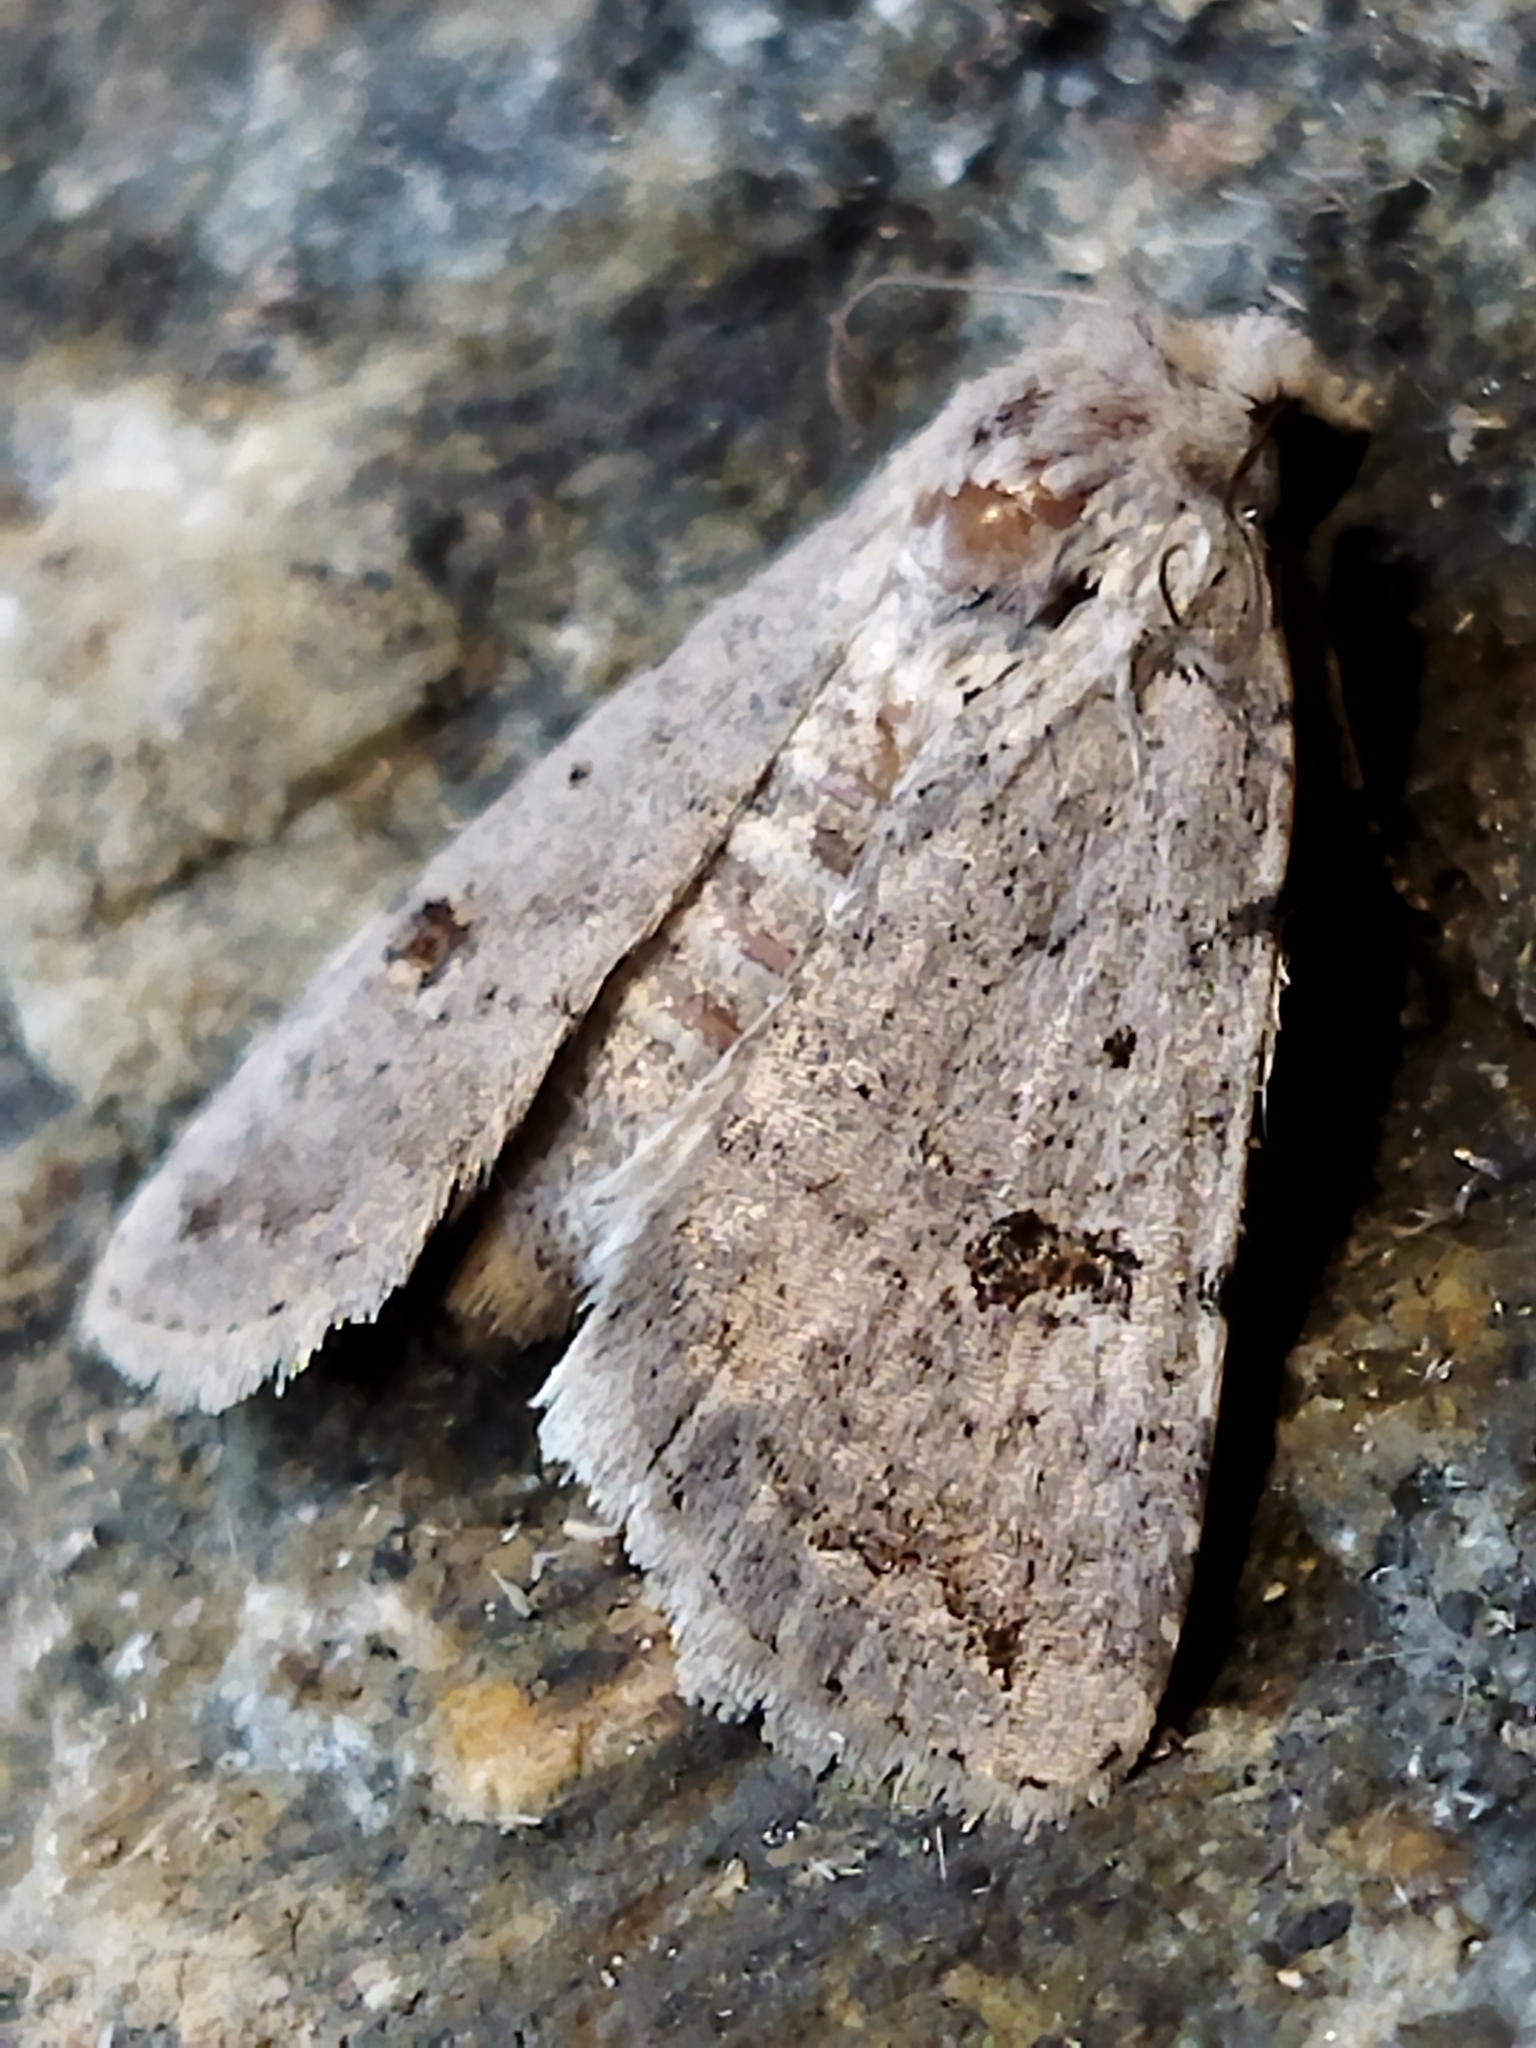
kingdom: Animalia
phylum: Arthropoda
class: Insecta
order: Lepidoptera
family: Noctuidae
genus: Caradrina
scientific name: Caradrina kadenii
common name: Clancy's rustic
